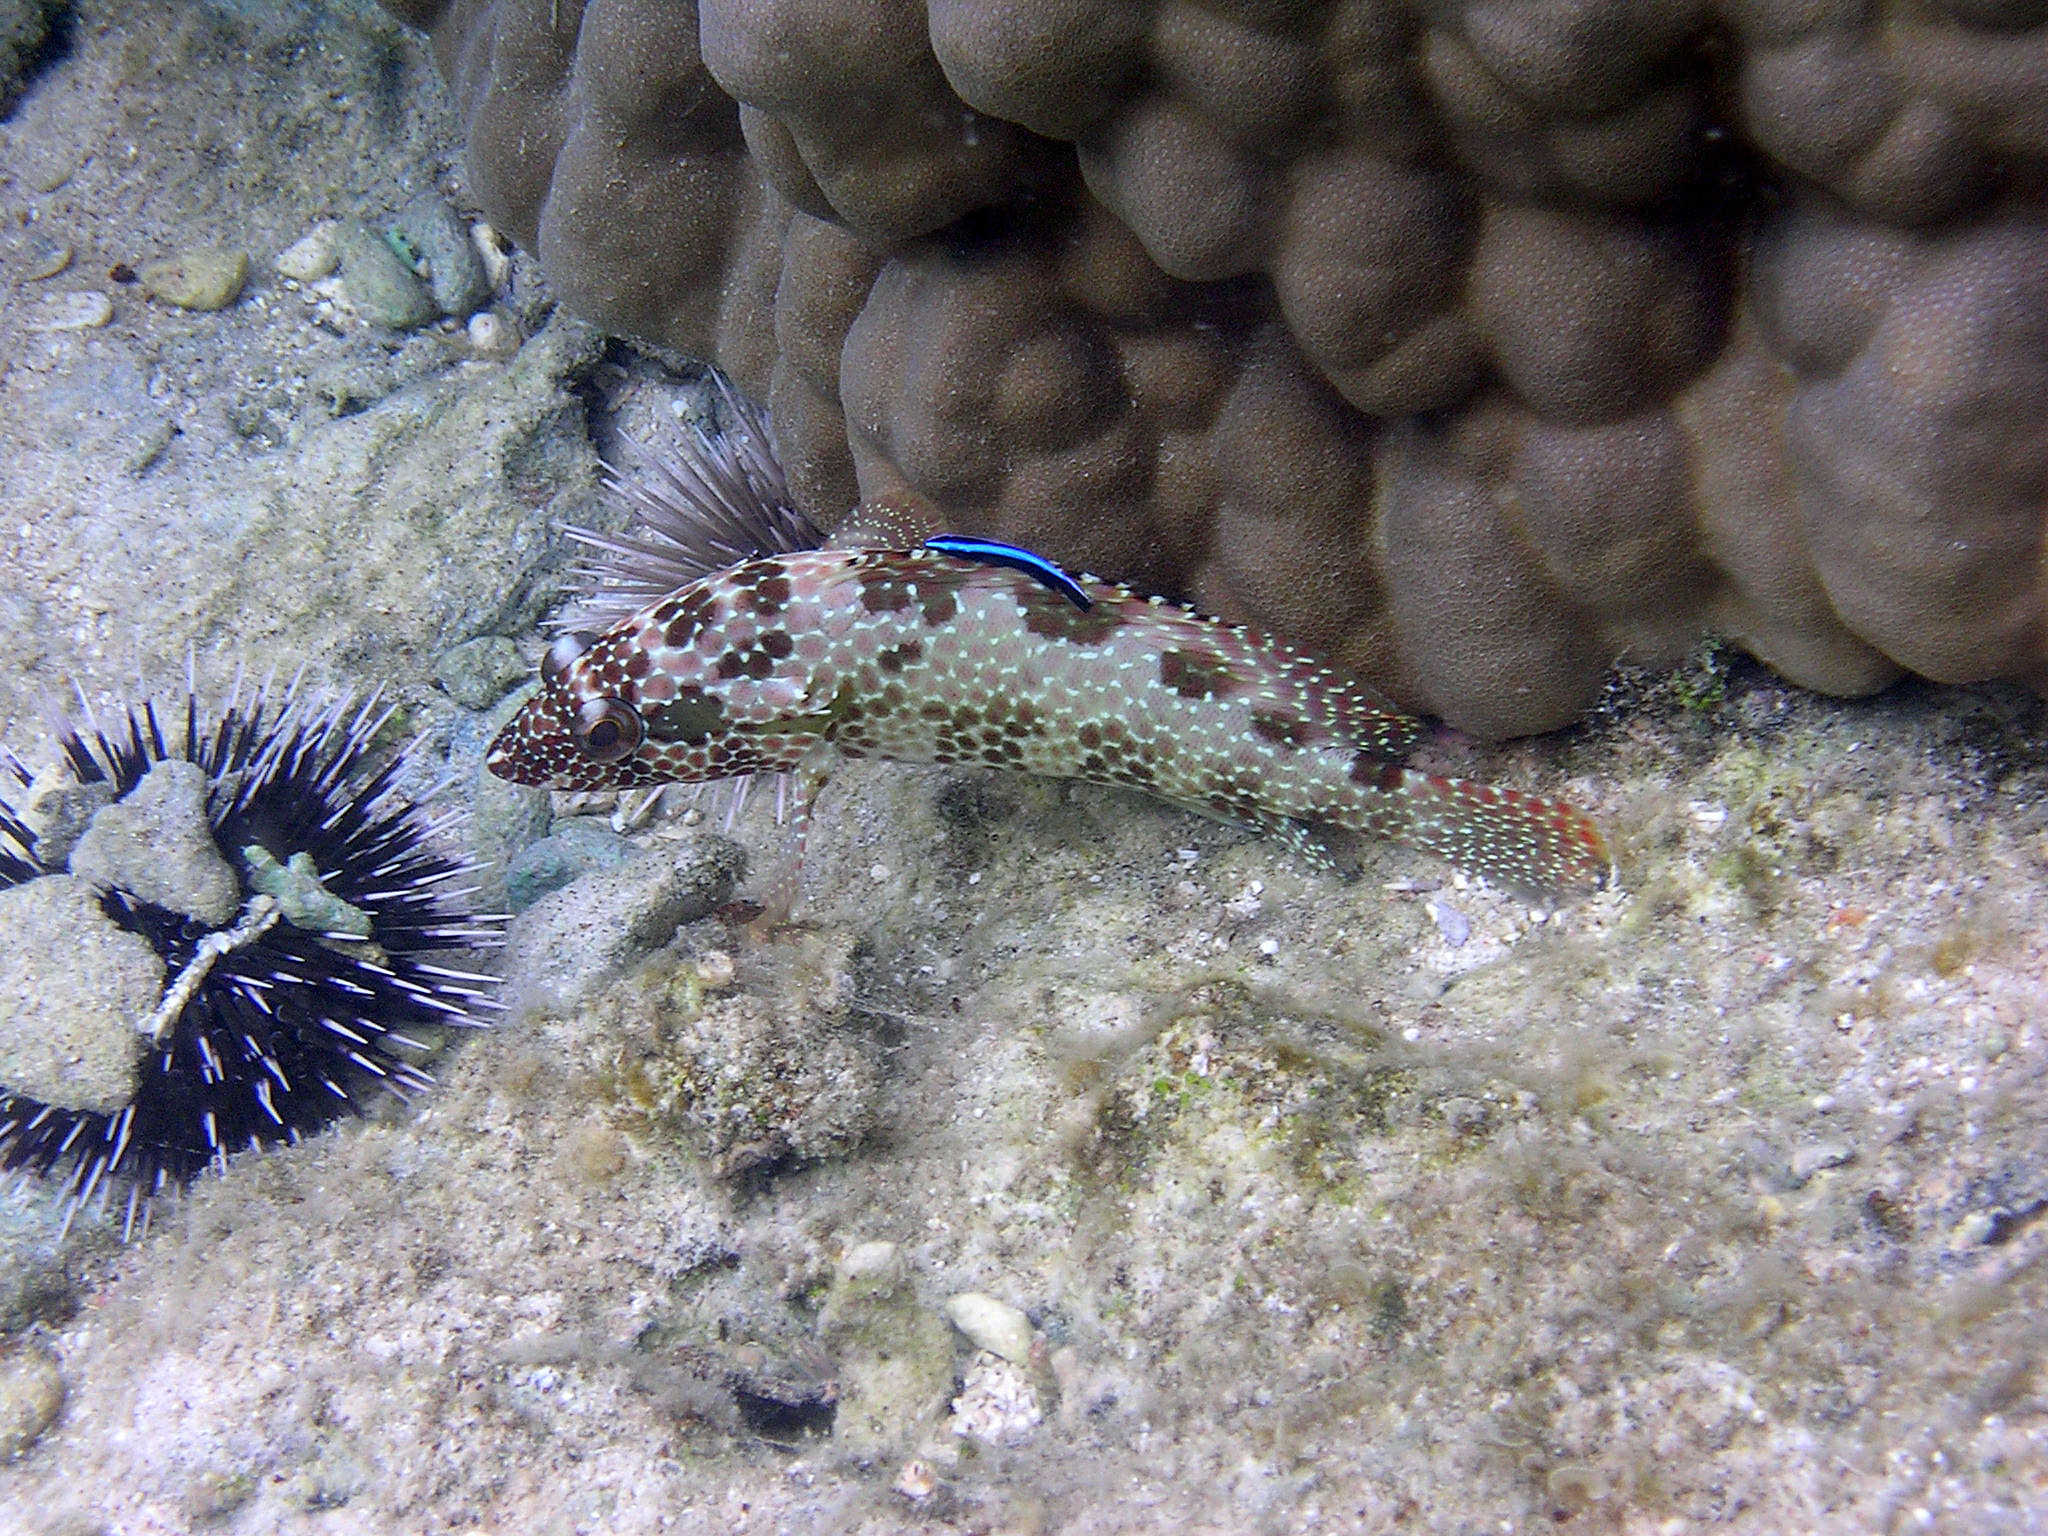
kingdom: Animalia
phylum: Chordata
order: Perciformes
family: Serranidae
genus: Epinephelus
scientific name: Epinephelus hexagonatus
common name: Hexagon grouper
